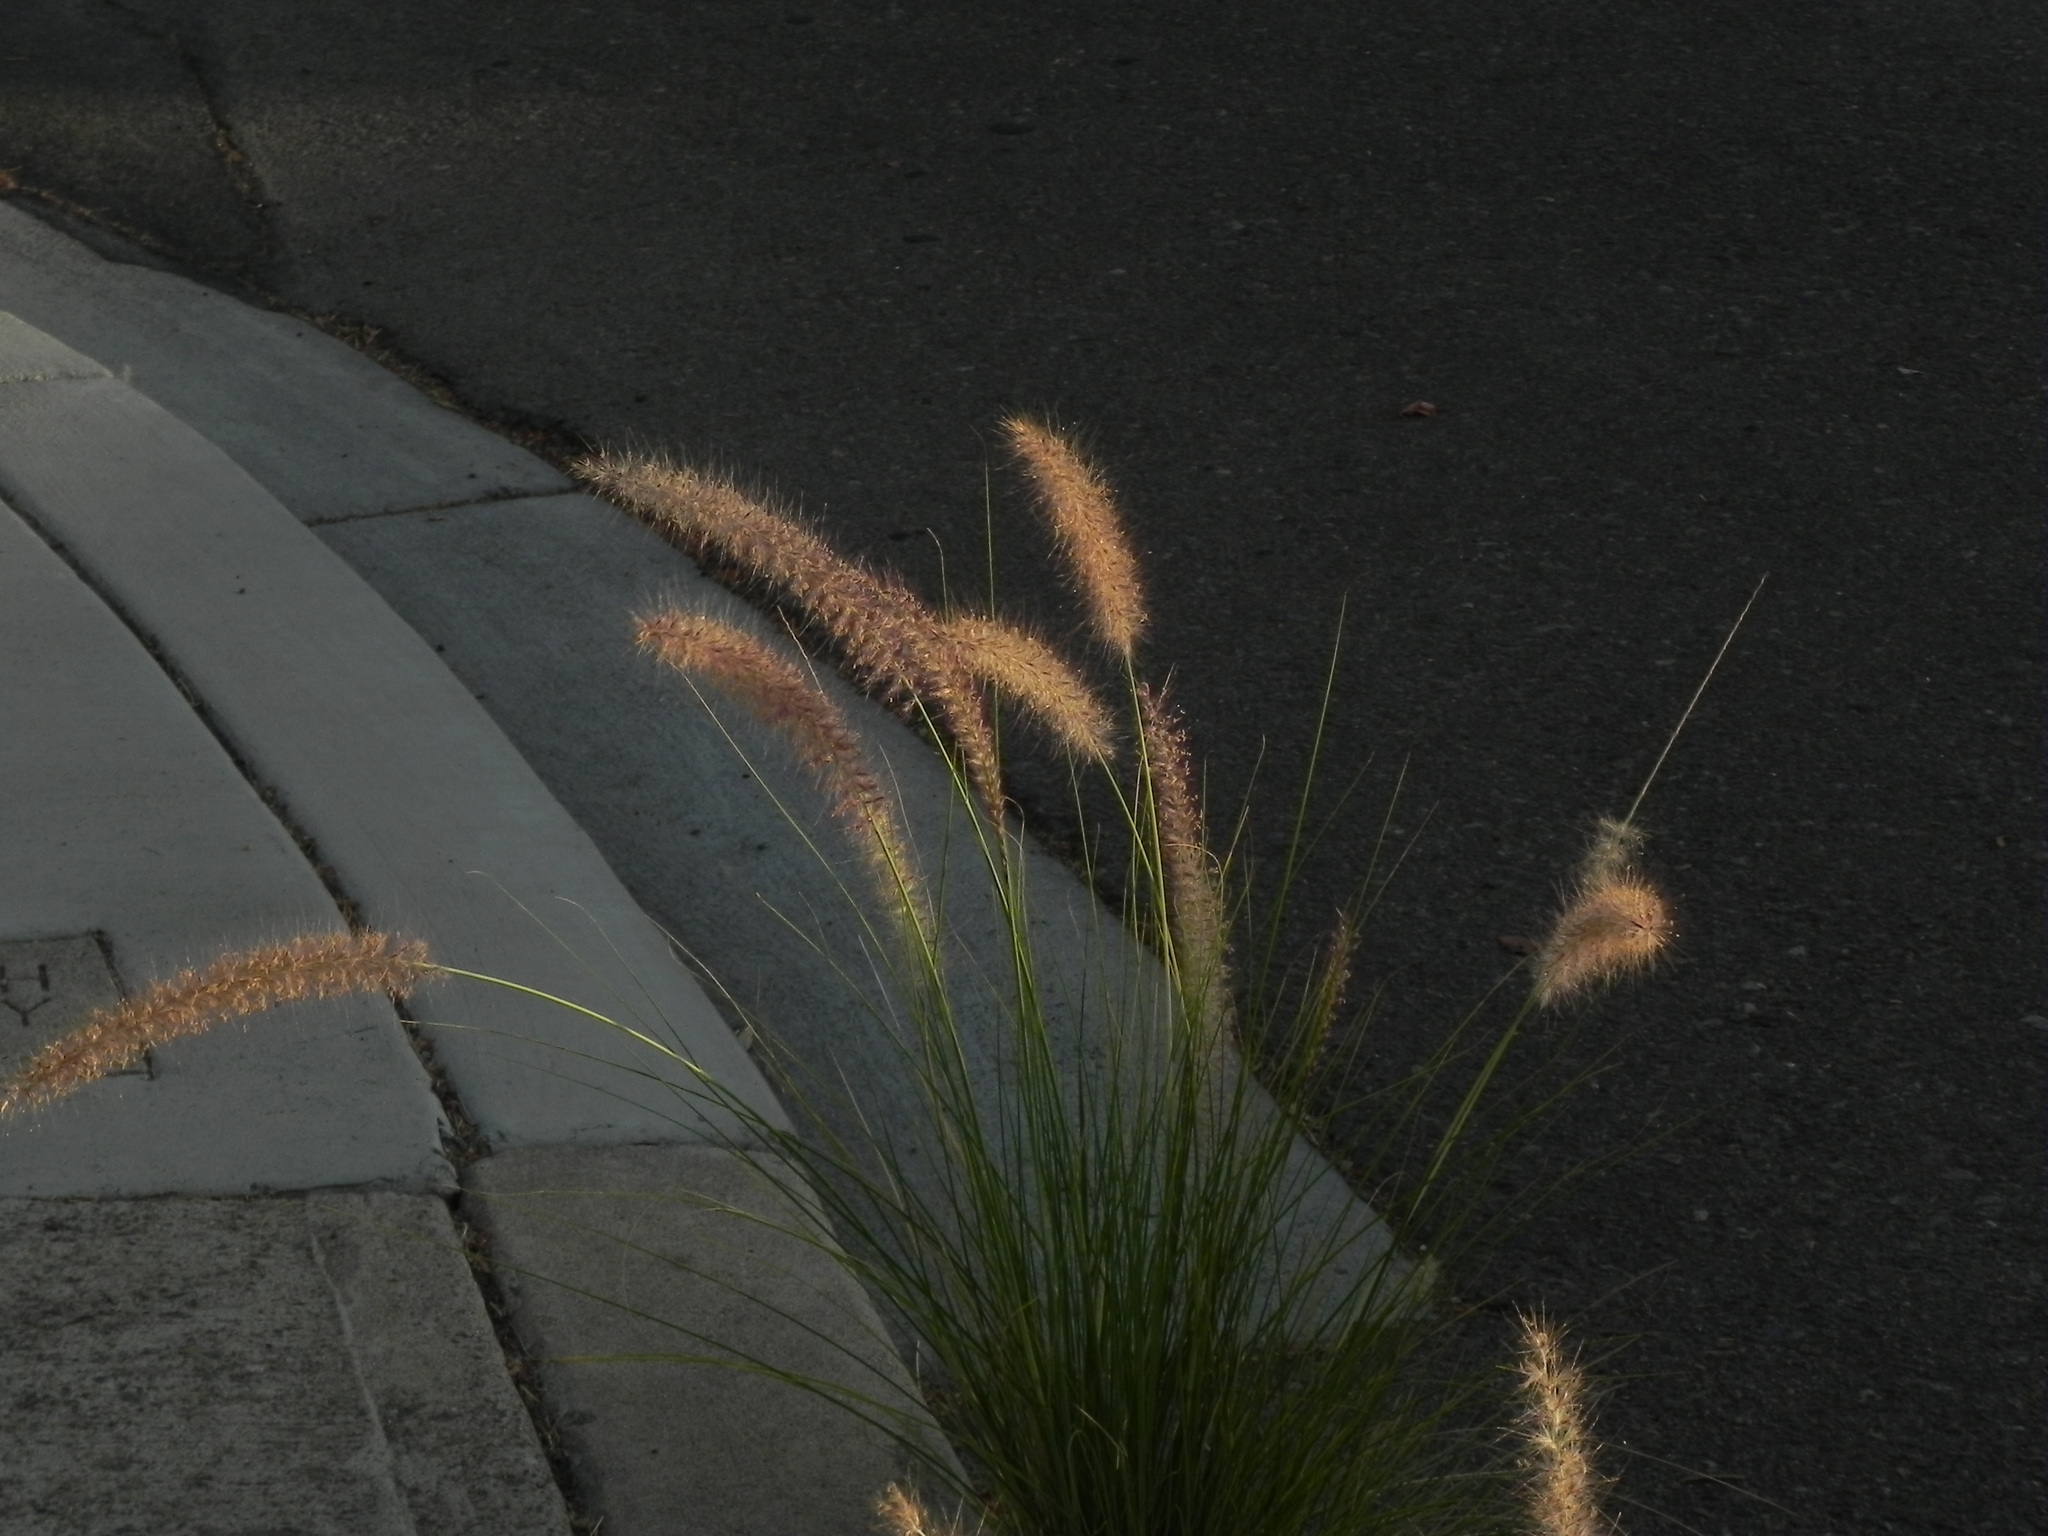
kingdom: Plantae
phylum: Tracheophyta
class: Liliopsida
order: Poales
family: Poaceae
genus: Cenchrus
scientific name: Cenchrus setaceus
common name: Crimson fountaingrass
